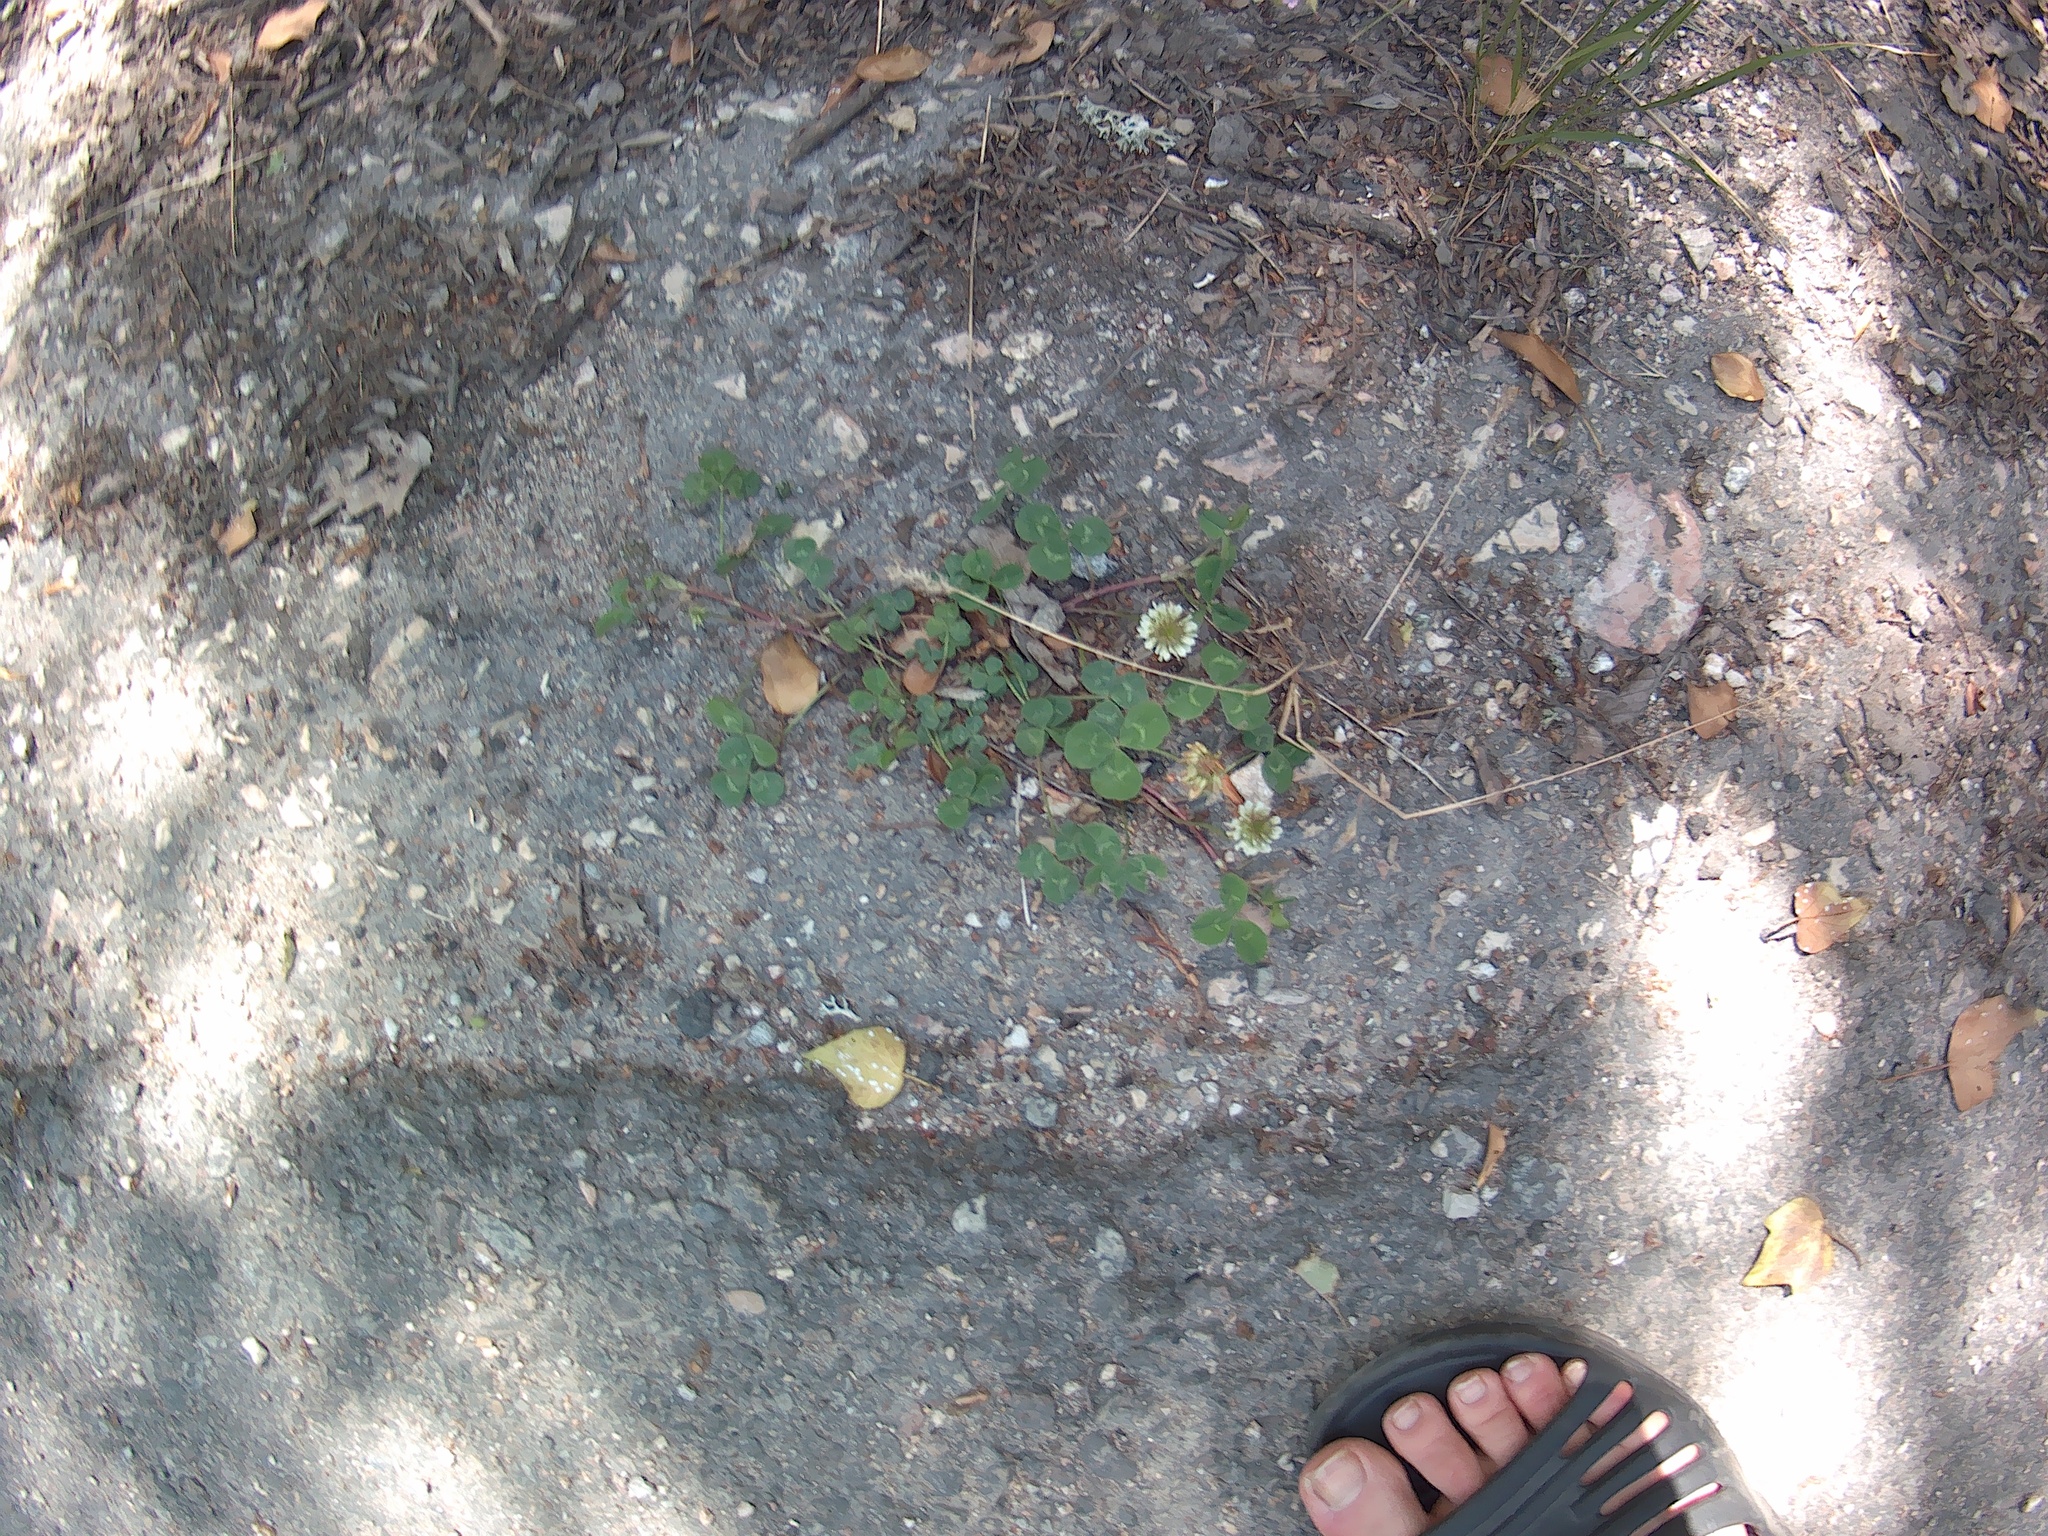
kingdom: Plantae
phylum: Tracheophyta
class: Magnoliopsida
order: Fabales
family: Fabaceae
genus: Trifolium
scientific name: Trifolium repens
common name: White clover
